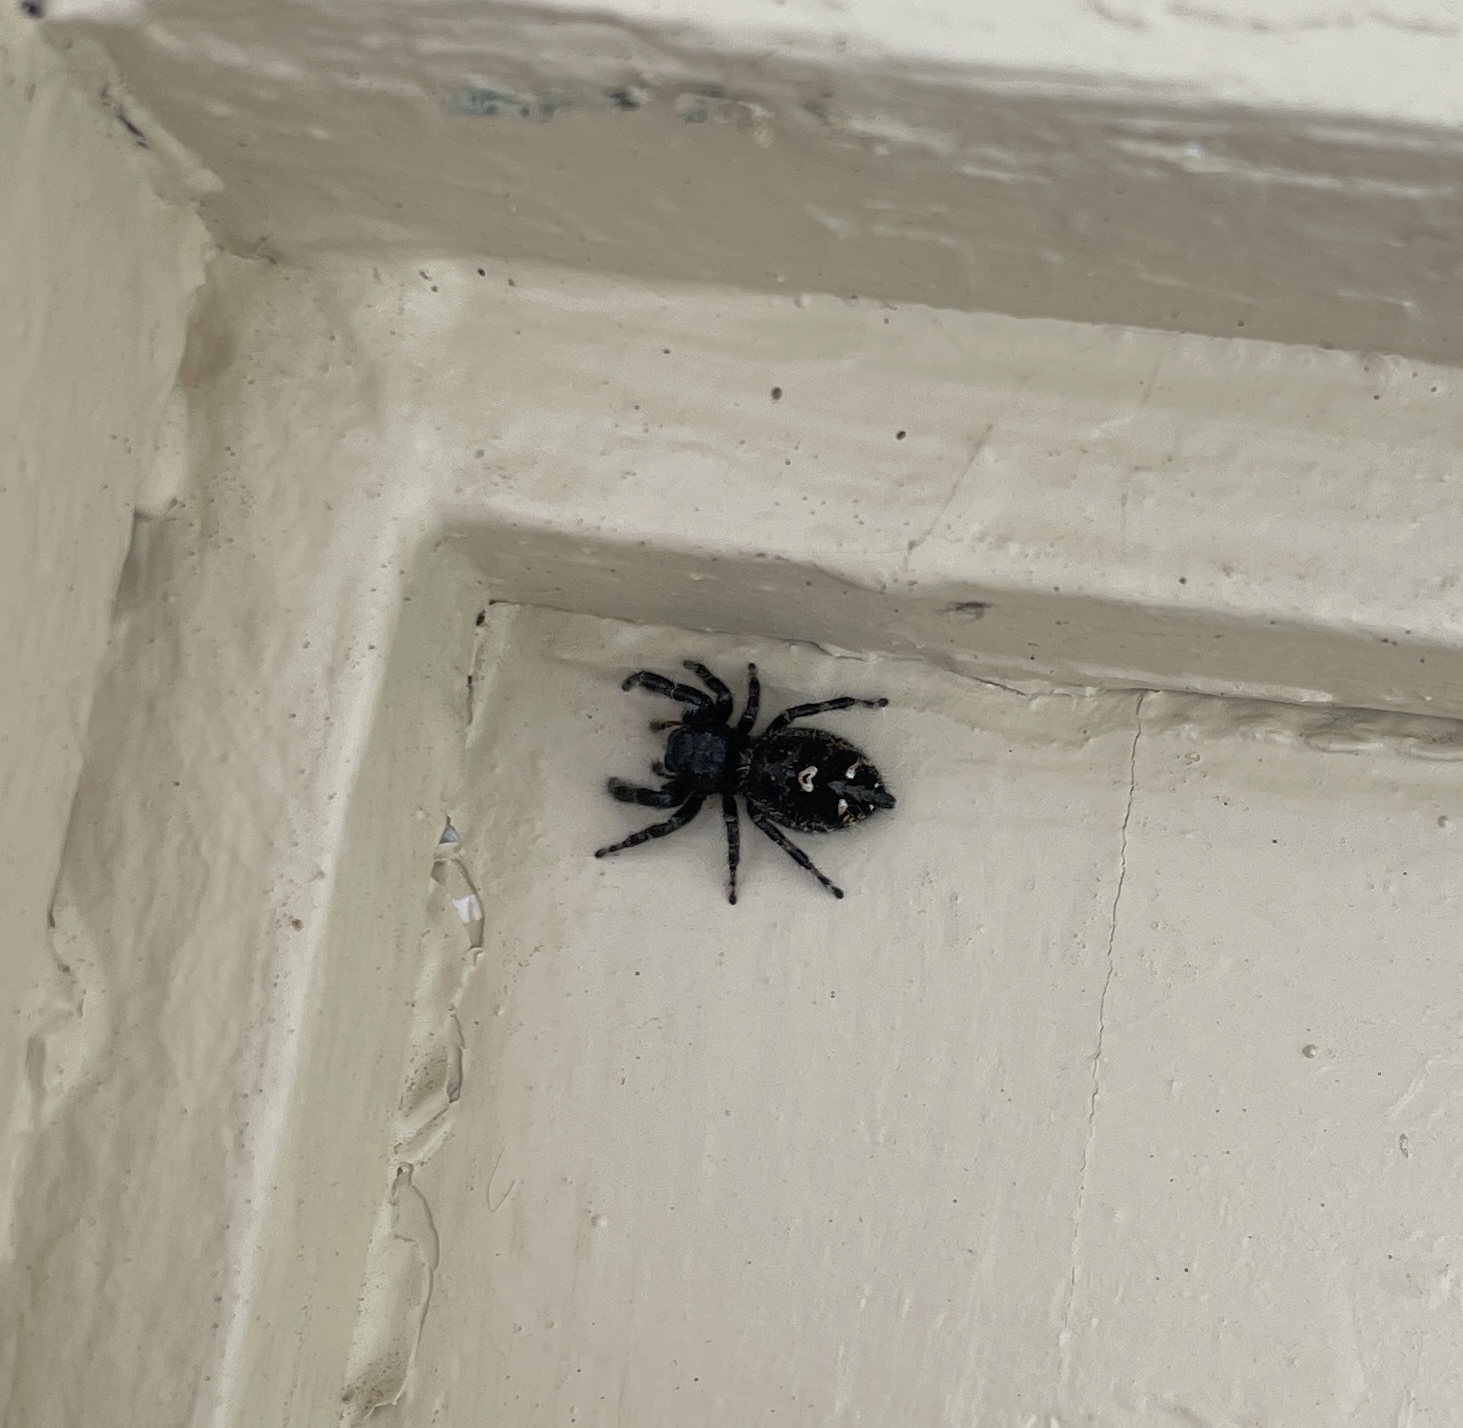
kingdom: Animalia
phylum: Arthropoda
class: Arachnida
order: Araneae
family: Salticidae
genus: Phidippus
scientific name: Phidippus audax
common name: Bold jumper
